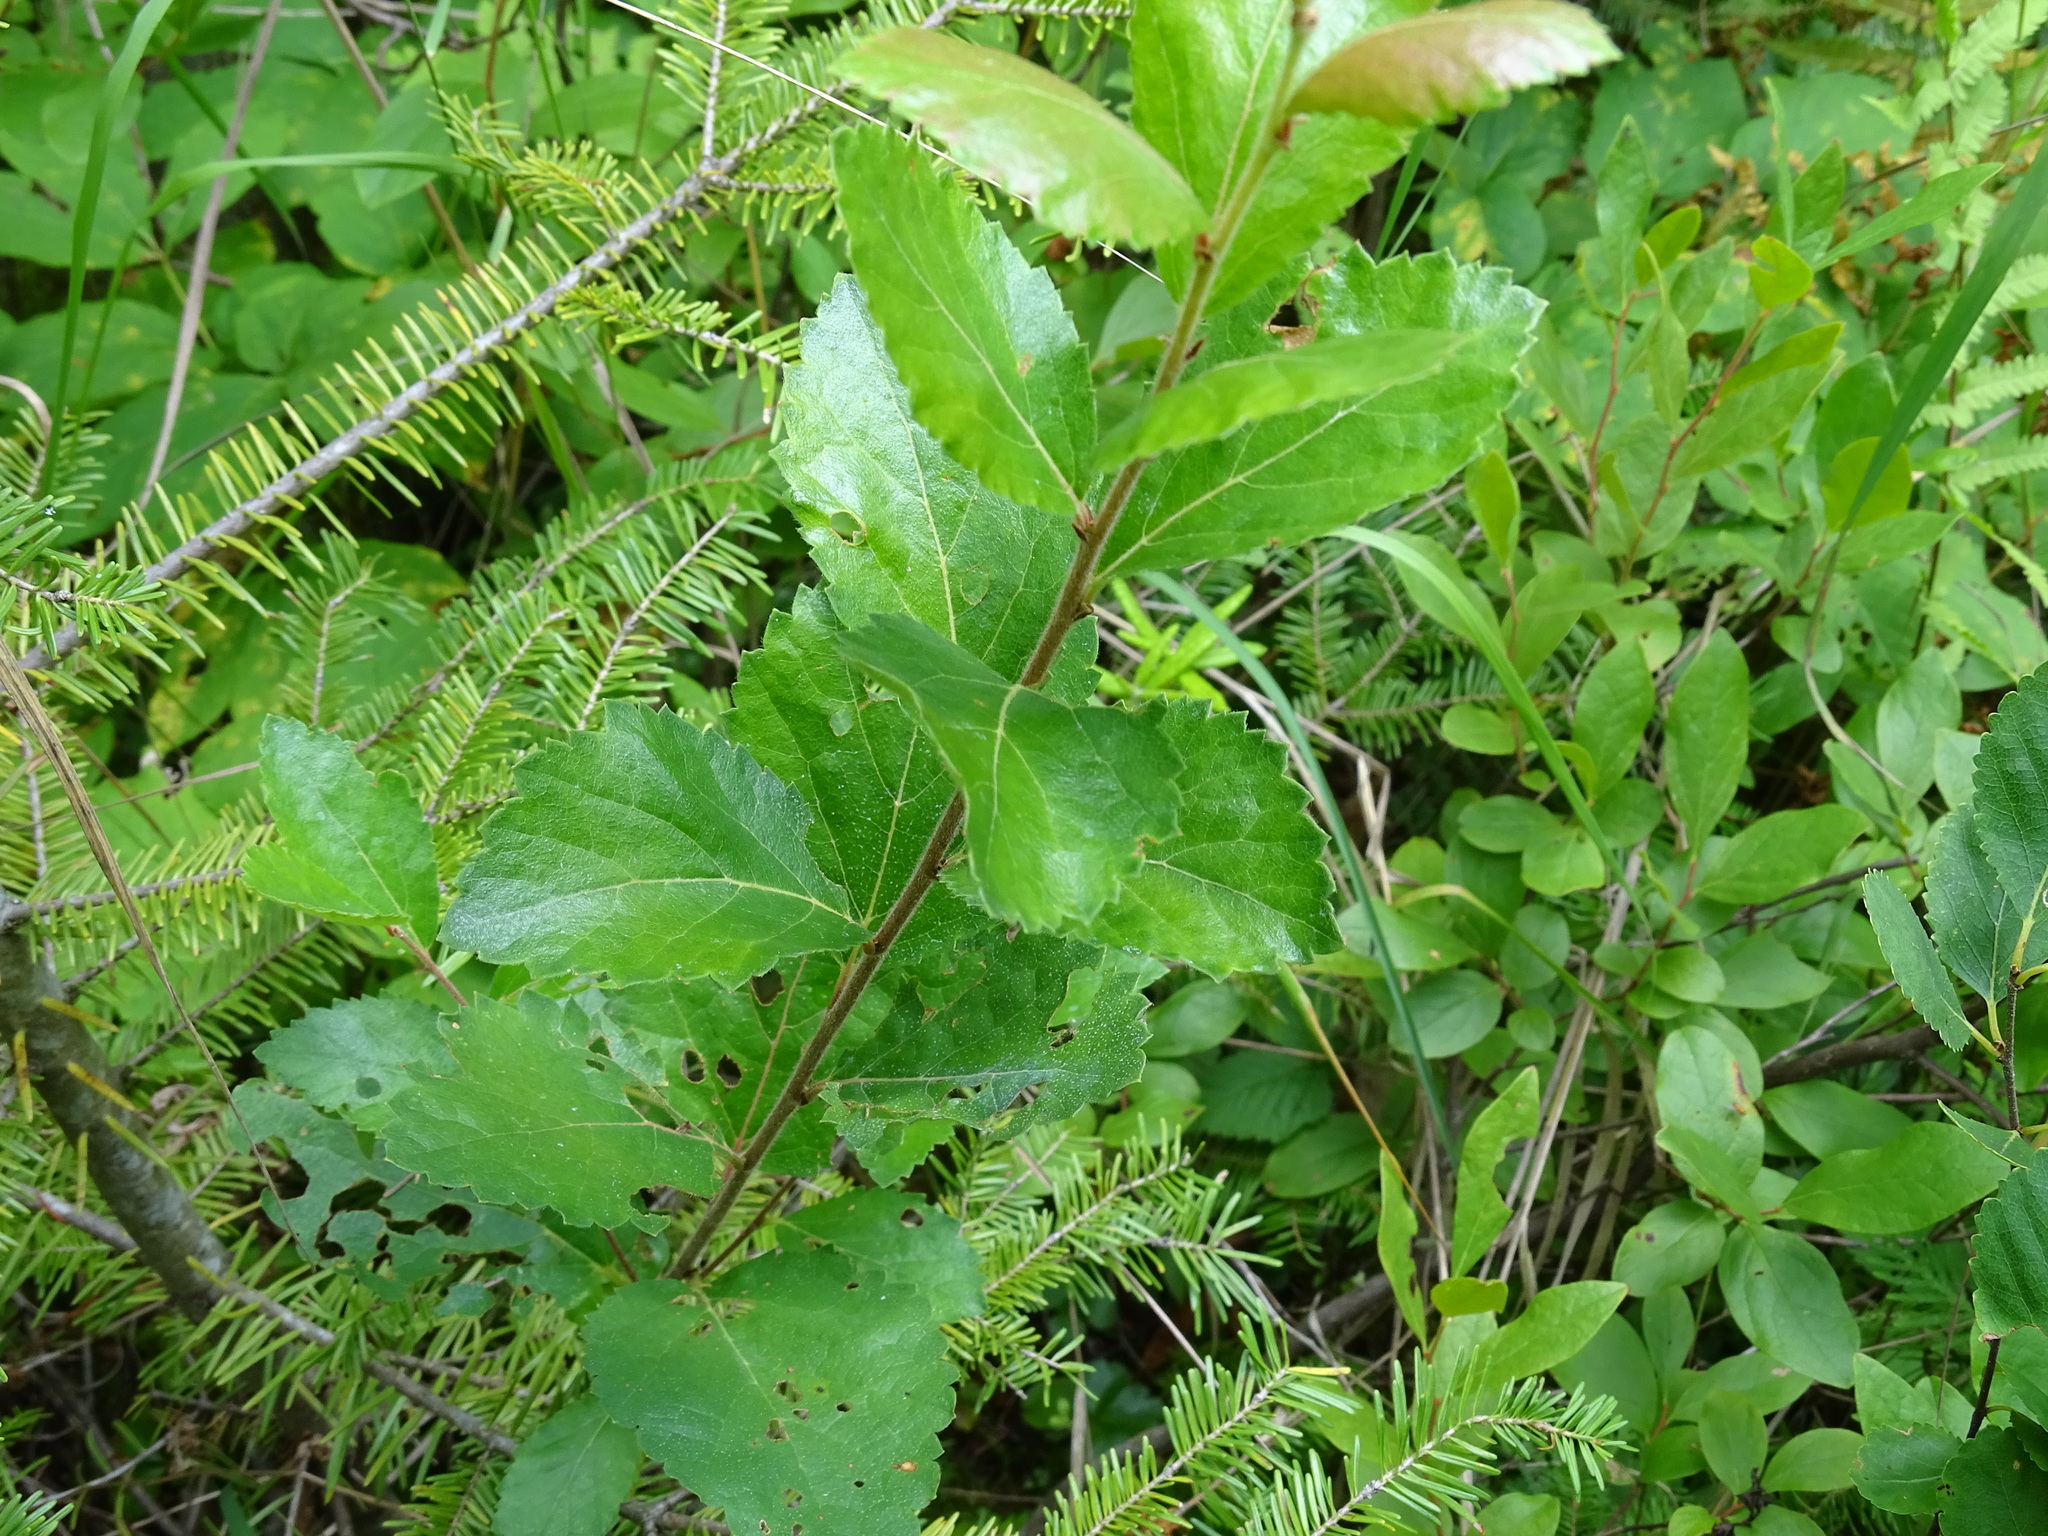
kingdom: Plantae
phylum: Tracheophyta
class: Magnoliopsida
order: Fagales
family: Betulaceae
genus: Betula
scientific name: Betula pumila
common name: Bog birch
